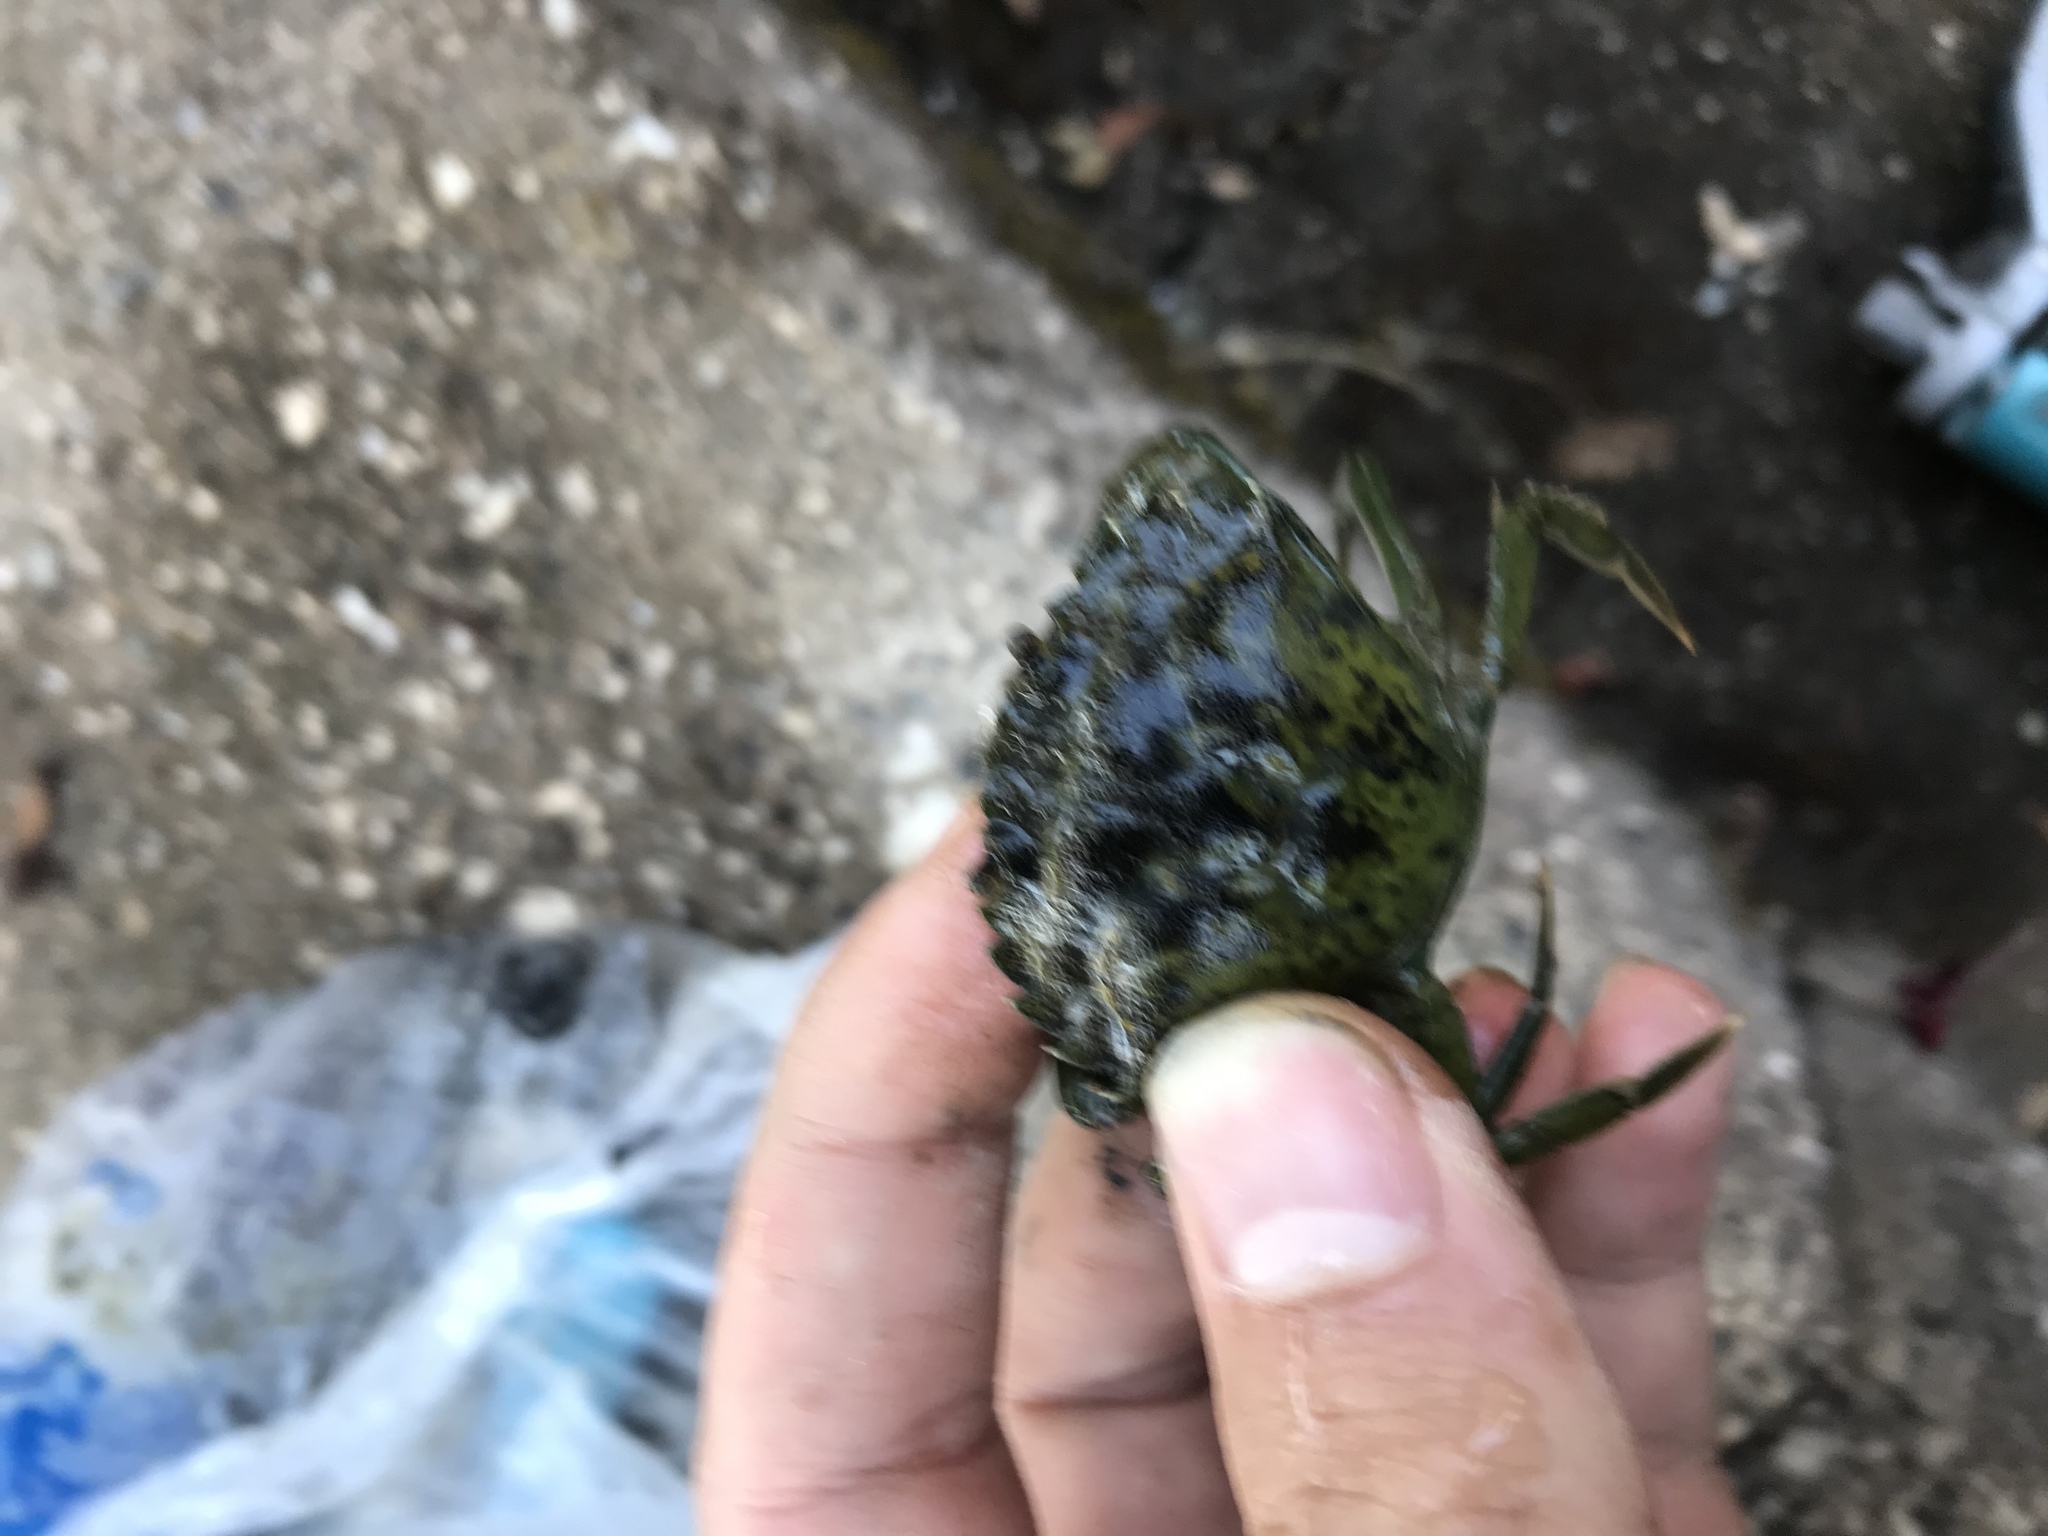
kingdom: Animalia
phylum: Arthropoda
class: Malacostraca
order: Decapoda
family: Carcinidae
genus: Carcinus
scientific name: Carcinus maenas
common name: European green crab
